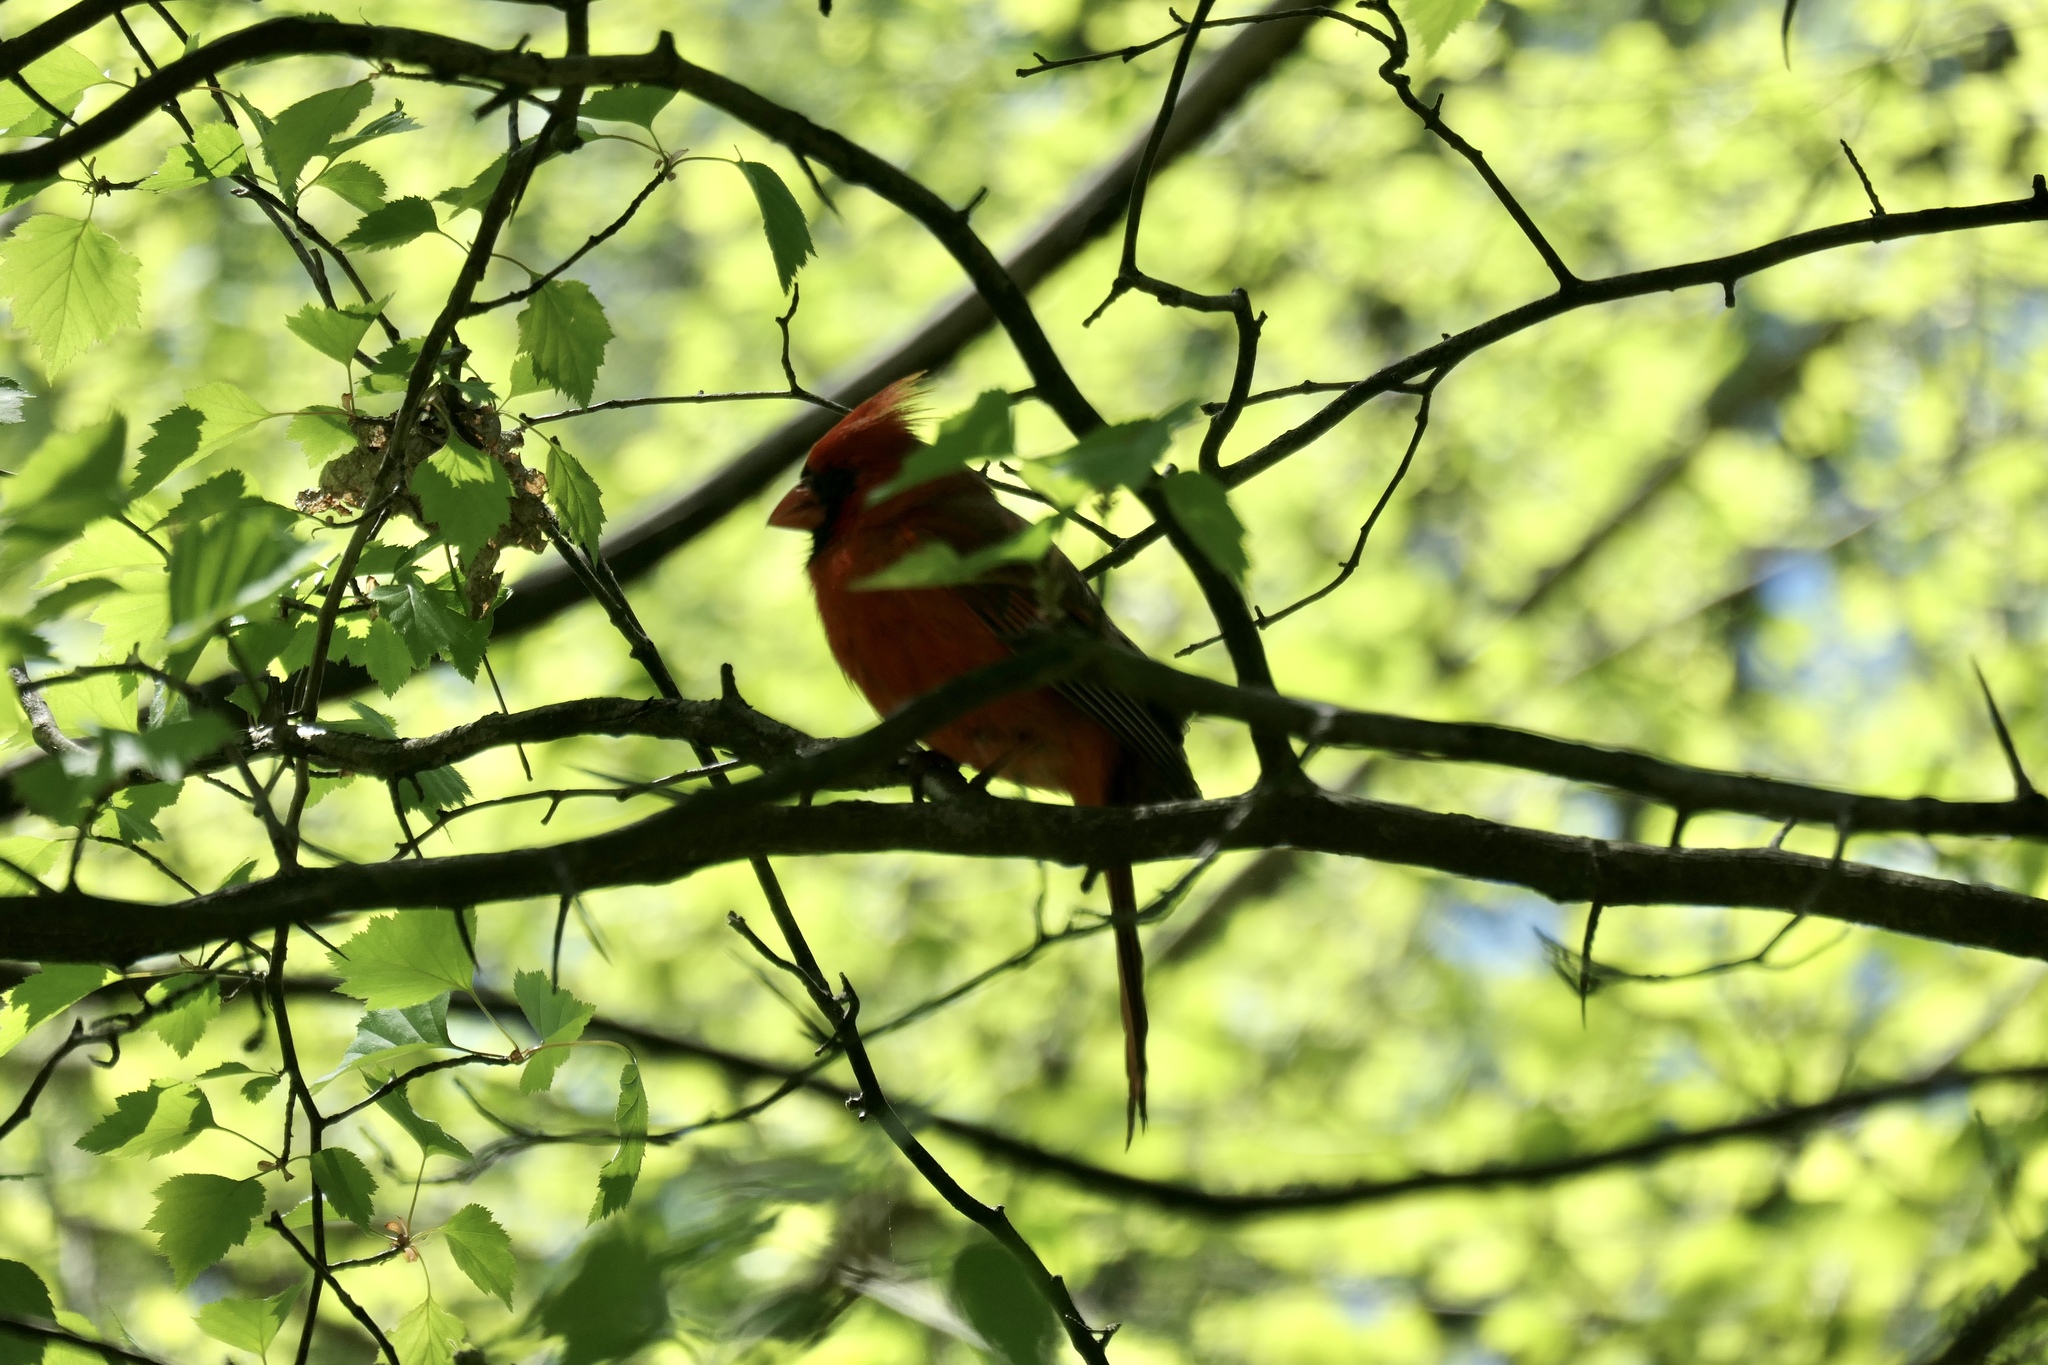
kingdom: Animalia
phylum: Chordata
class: Aves
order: Passeriformes
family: Cardinalidae
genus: Cardinalis
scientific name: Cardinalis cardinalis
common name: Northern cardinal
